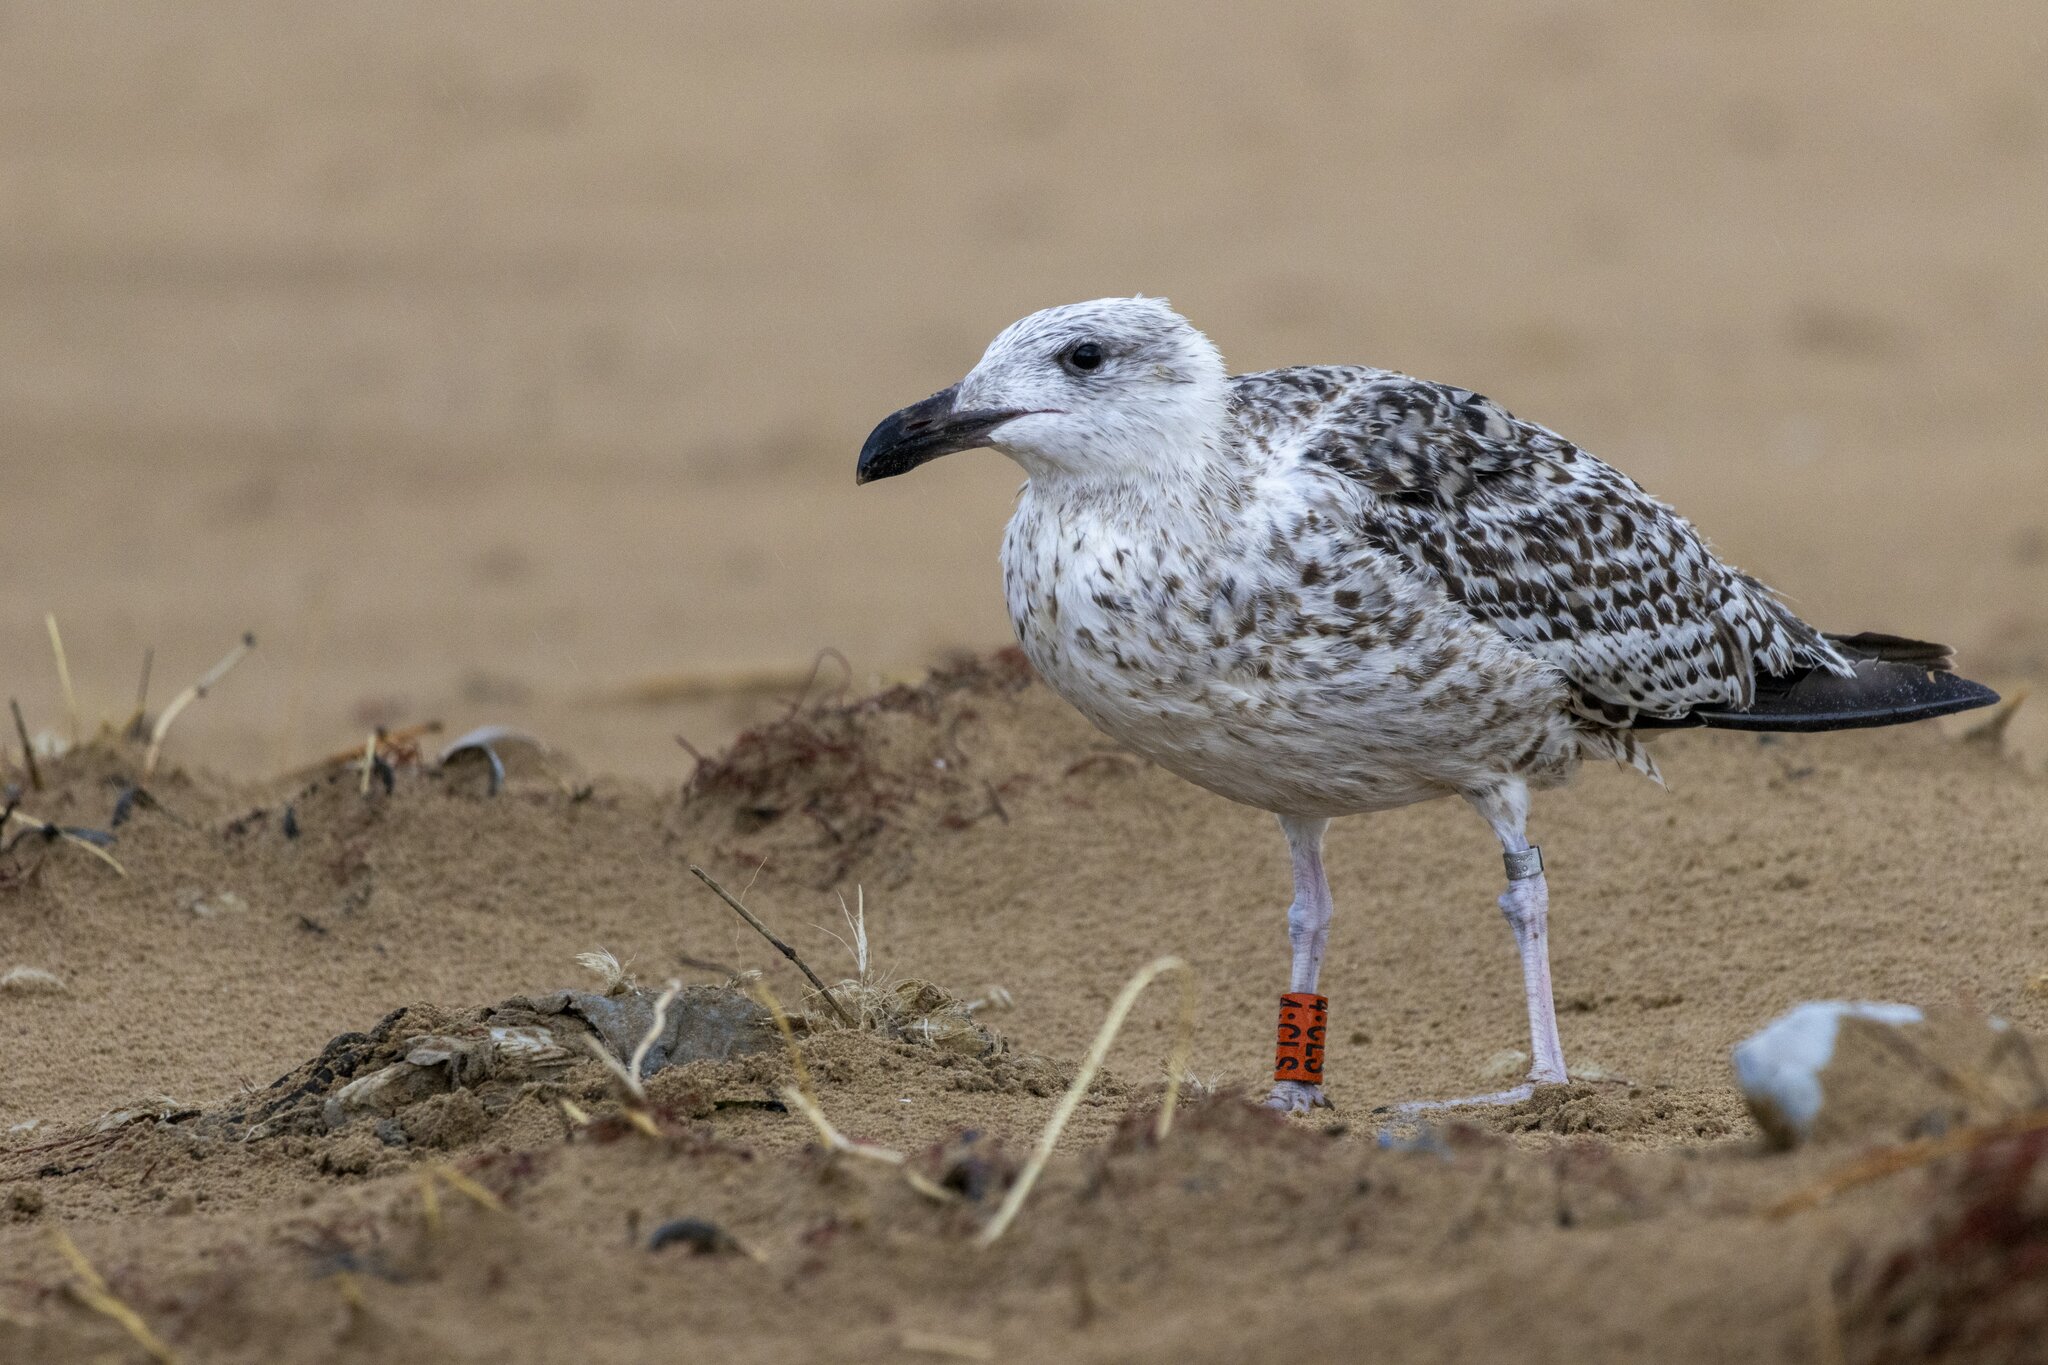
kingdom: Animalia
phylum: Chordata
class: Aves
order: Charadriiformes
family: Laridae
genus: Larus
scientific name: Larus marinus
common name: Great black-backed gull
